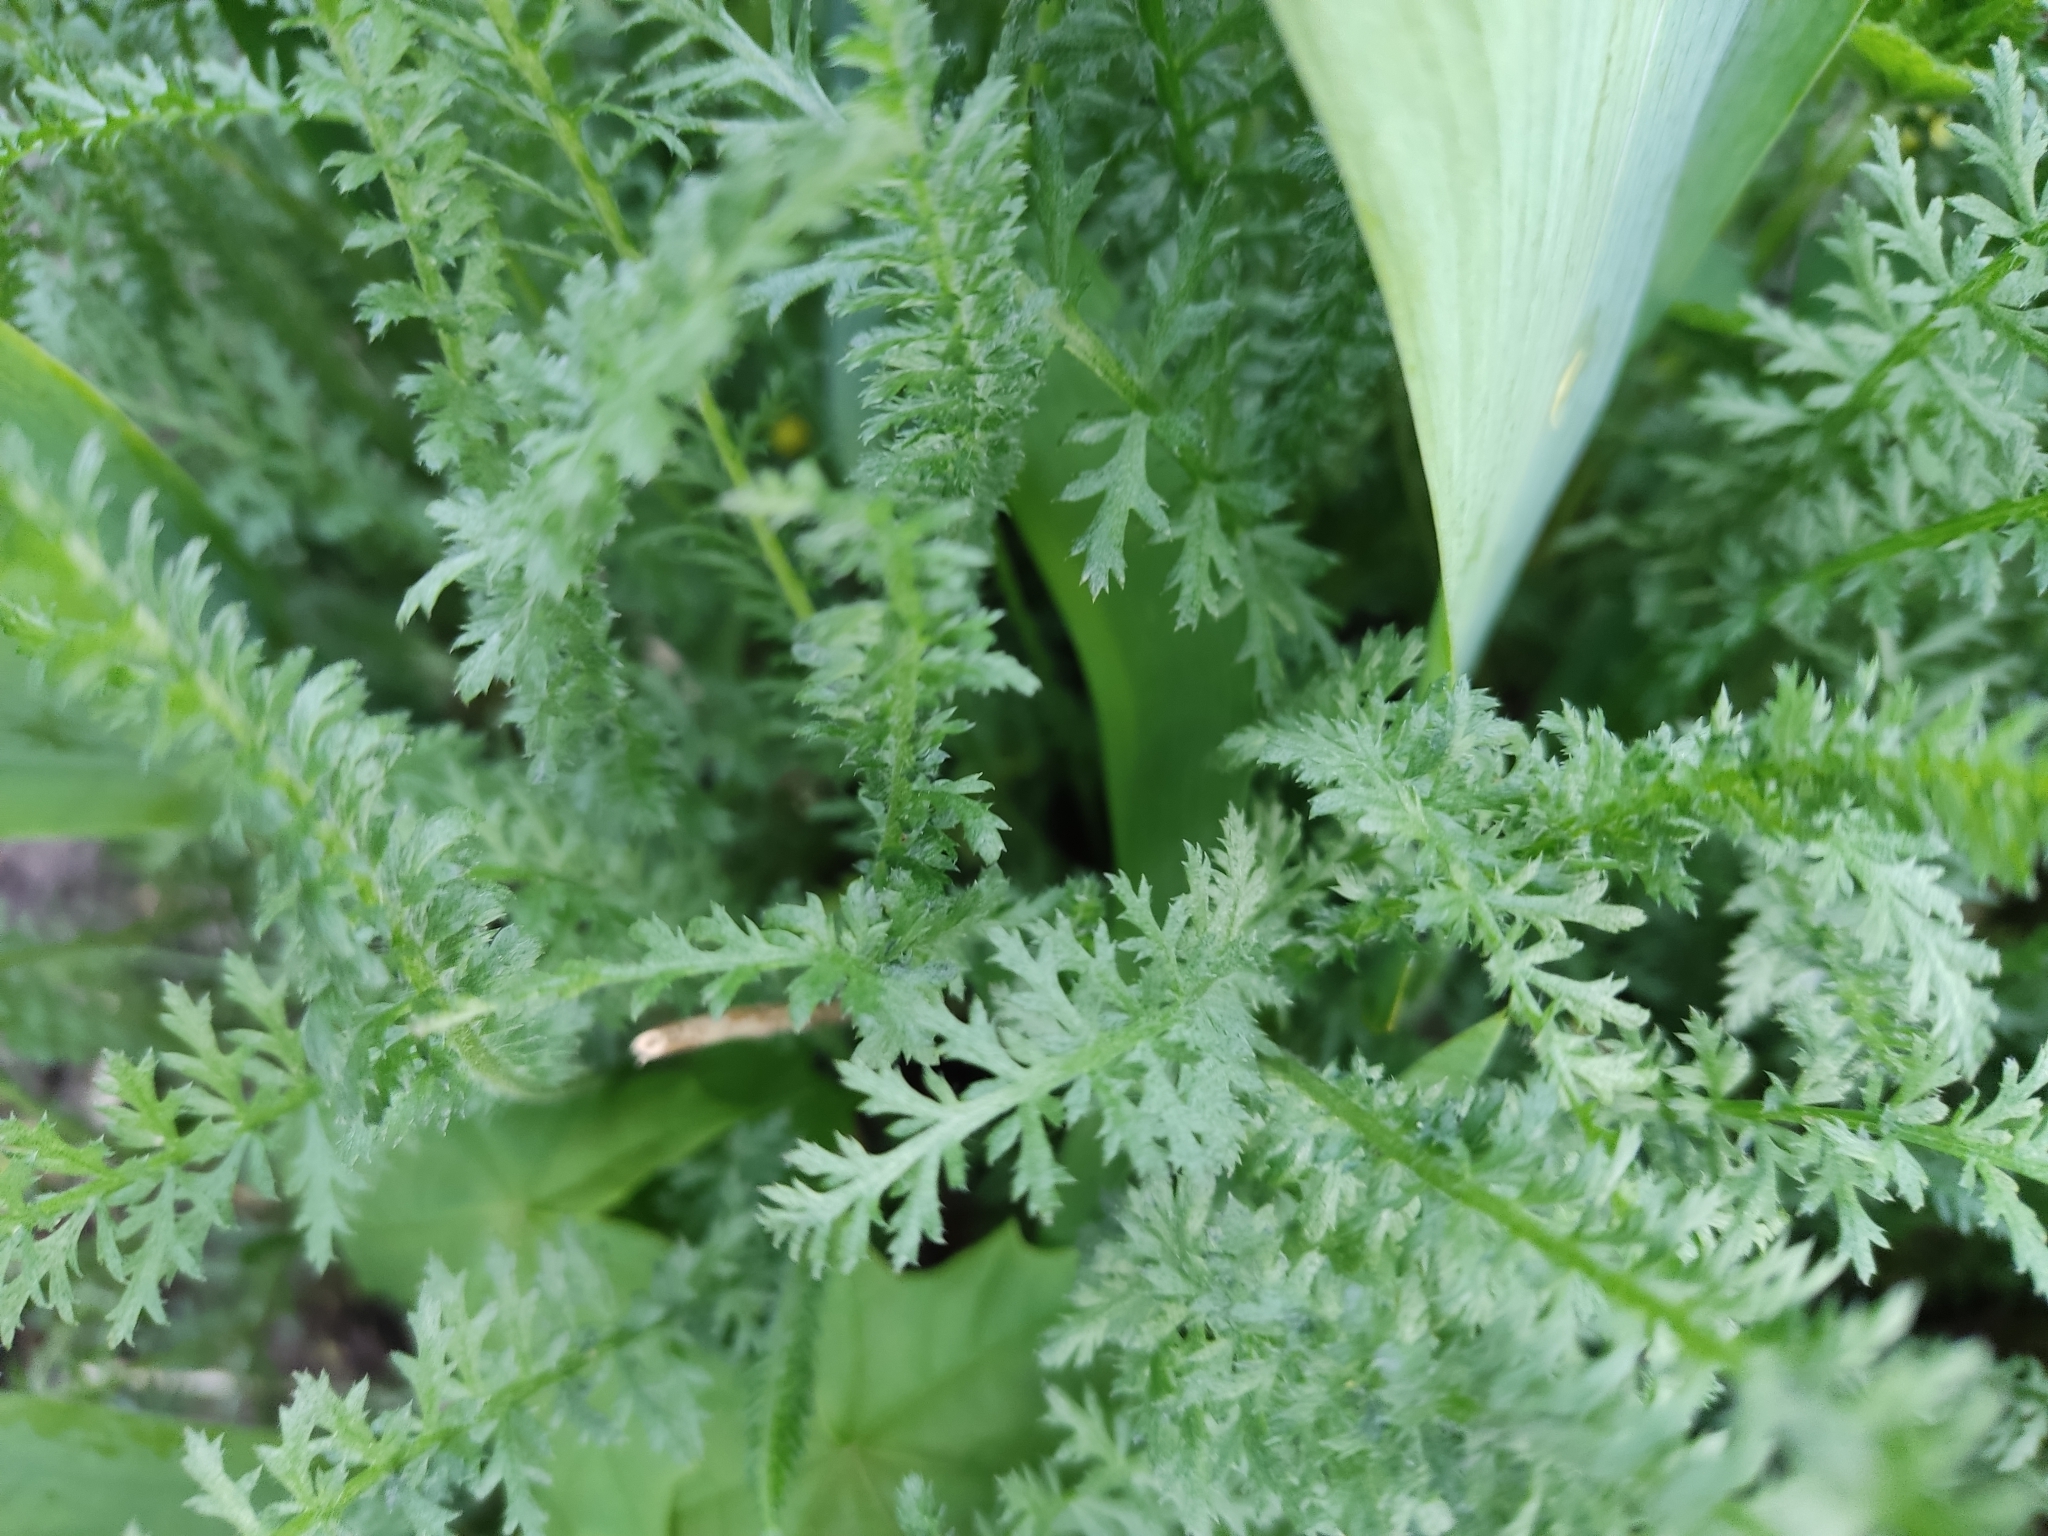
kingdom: Plantae
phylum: Tracheophyta
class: Magnoliopsida
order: Asterales
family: Asteraceae
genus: Achillea
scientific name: Achillea millefolium
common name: Yarrow
